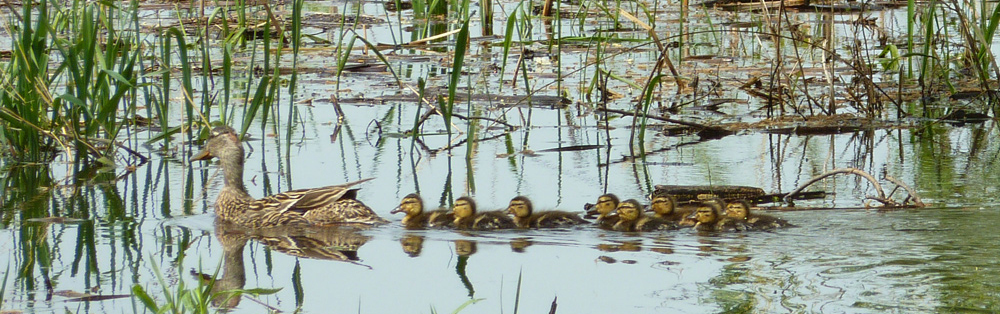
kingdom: Animalia
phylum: Chordata
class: Aves
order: Anseriformes
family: Anatidae
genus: Anas
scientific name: Anas platyrhynchos
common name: Mallard
